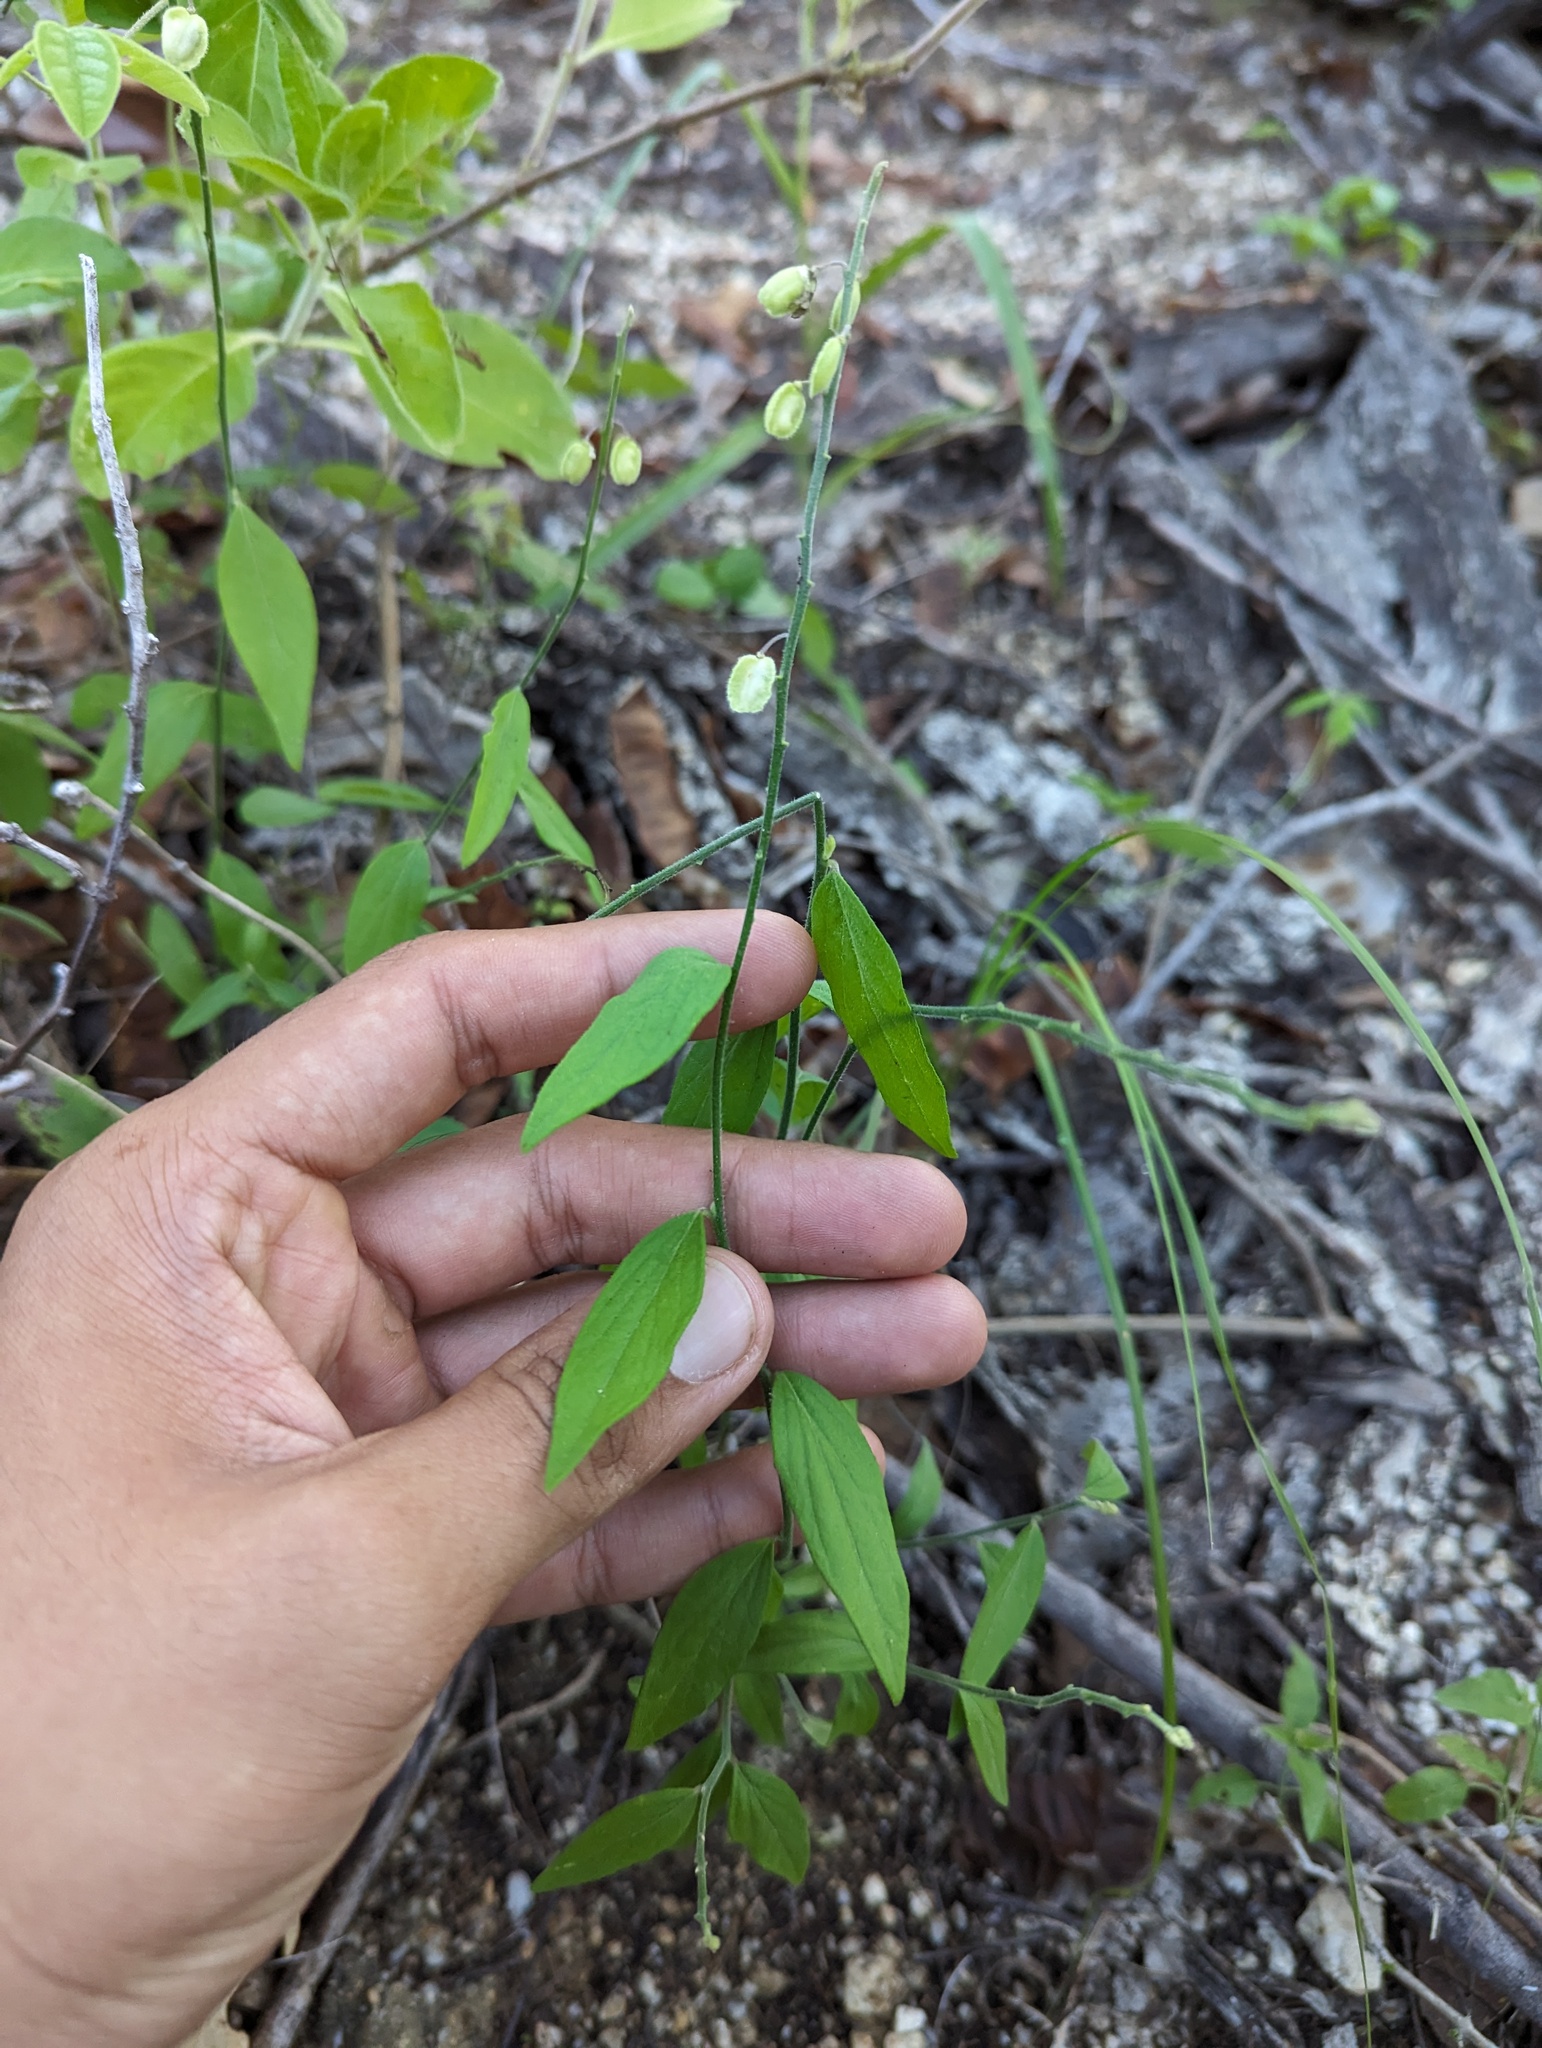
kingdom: Plantae
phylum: Tracheophyta
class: Magnoliopsida
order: Fabales
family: Polygalaceae
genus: Polygala
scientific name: Polygala magdalenae
